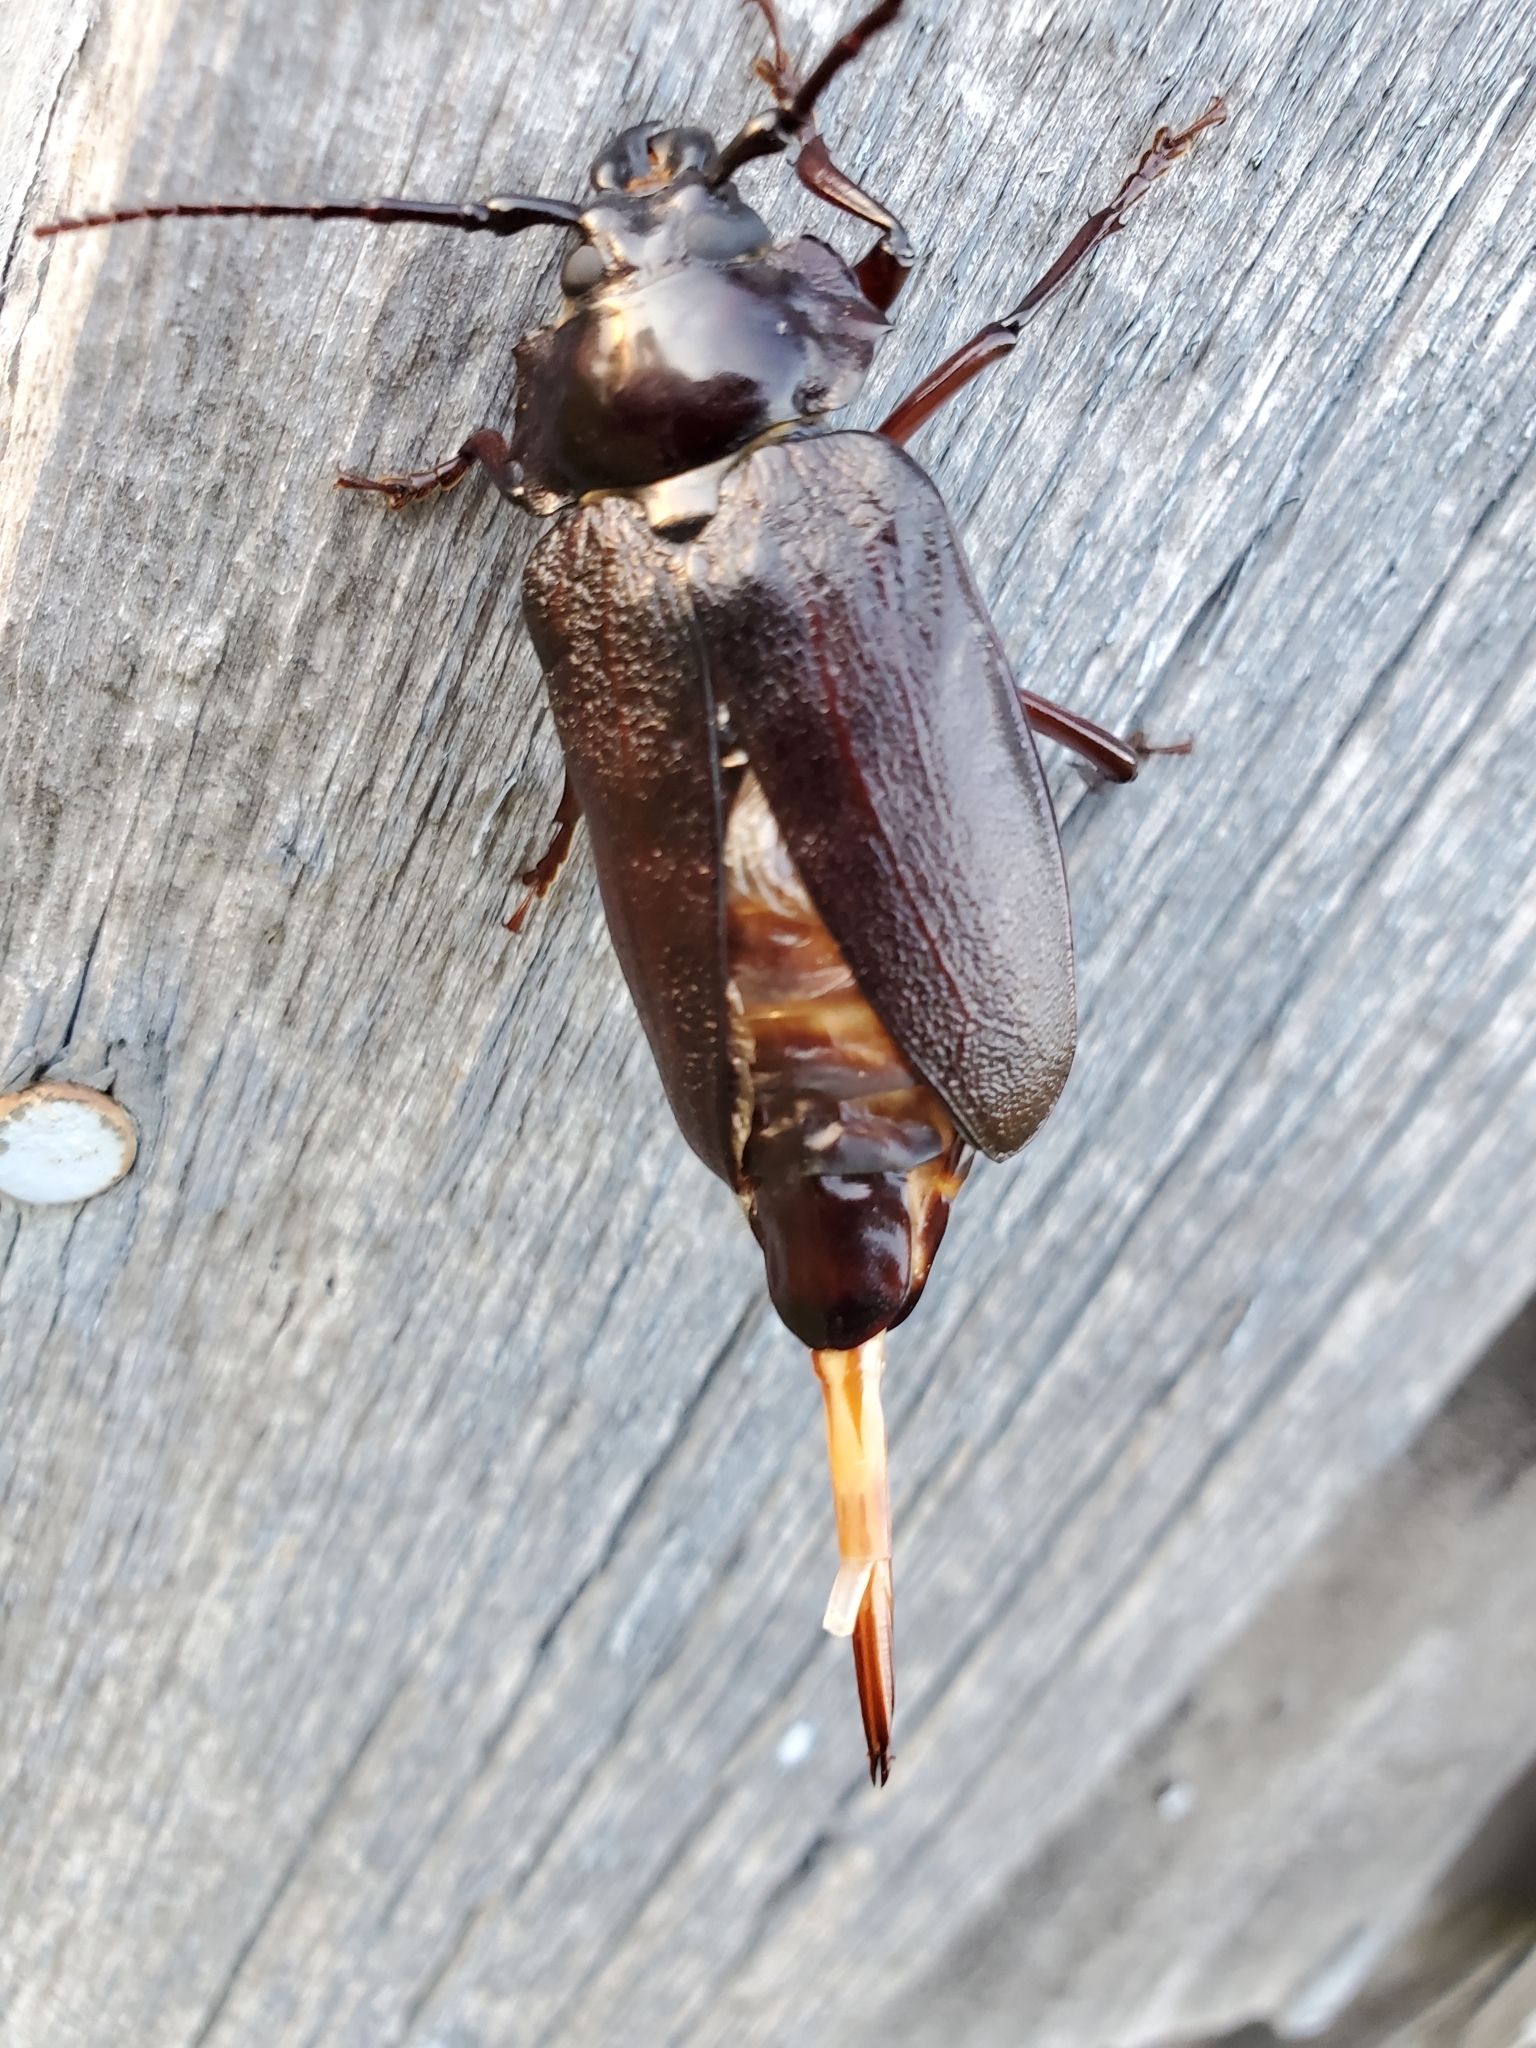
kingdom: Animalia
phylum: Arthropoda
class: Insecta
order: Coleoptera
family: Cerambycidae
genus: Prionus
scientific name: Prionus laticollis
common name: Broad necked prionus
